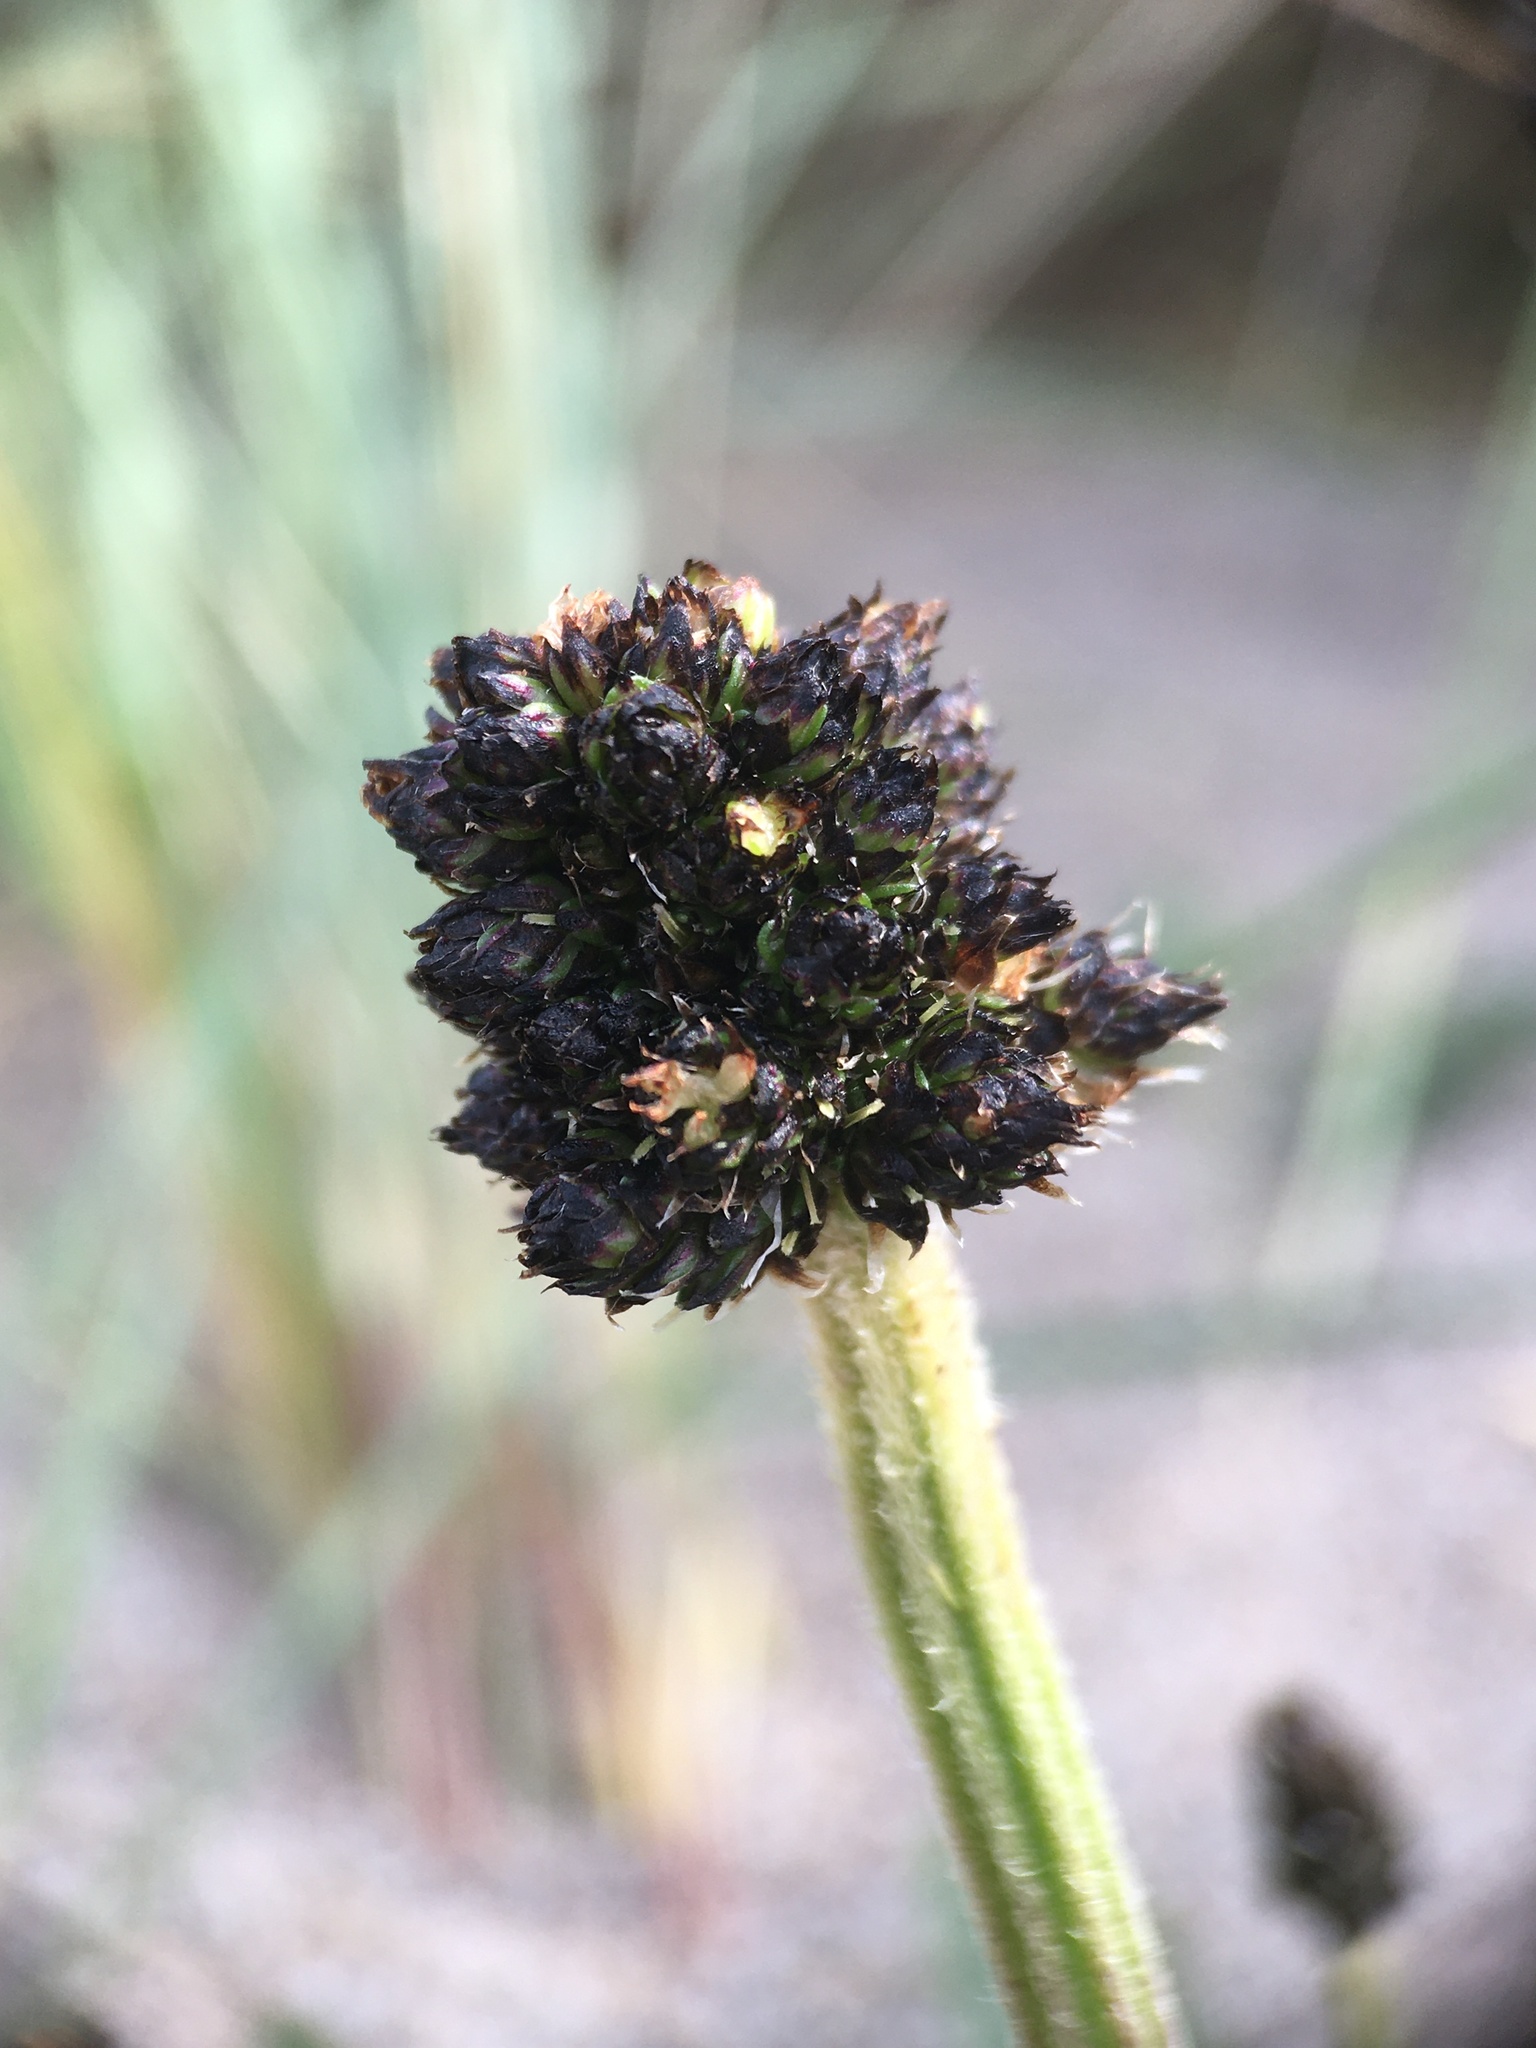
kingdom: Plantae
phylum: Tracheophyta
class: Magnoliopsida
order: Lamiales
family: Plantaginaceae
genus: Plantago
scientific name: Plantago lanceolata
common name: Ribwort plantain
